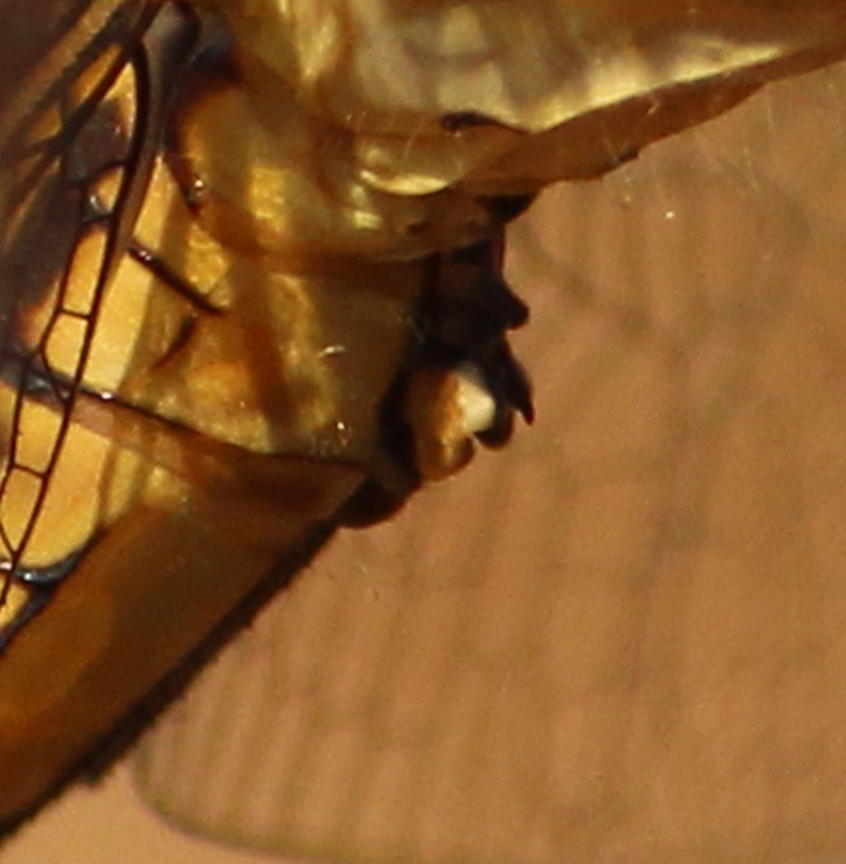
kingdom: Animalia
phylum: Arthropoda
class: Insecta
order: Odonata
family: Libellulidae
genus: Nesciothemis
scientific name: Nesciothemis farinosa
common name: Eastern blacktail
